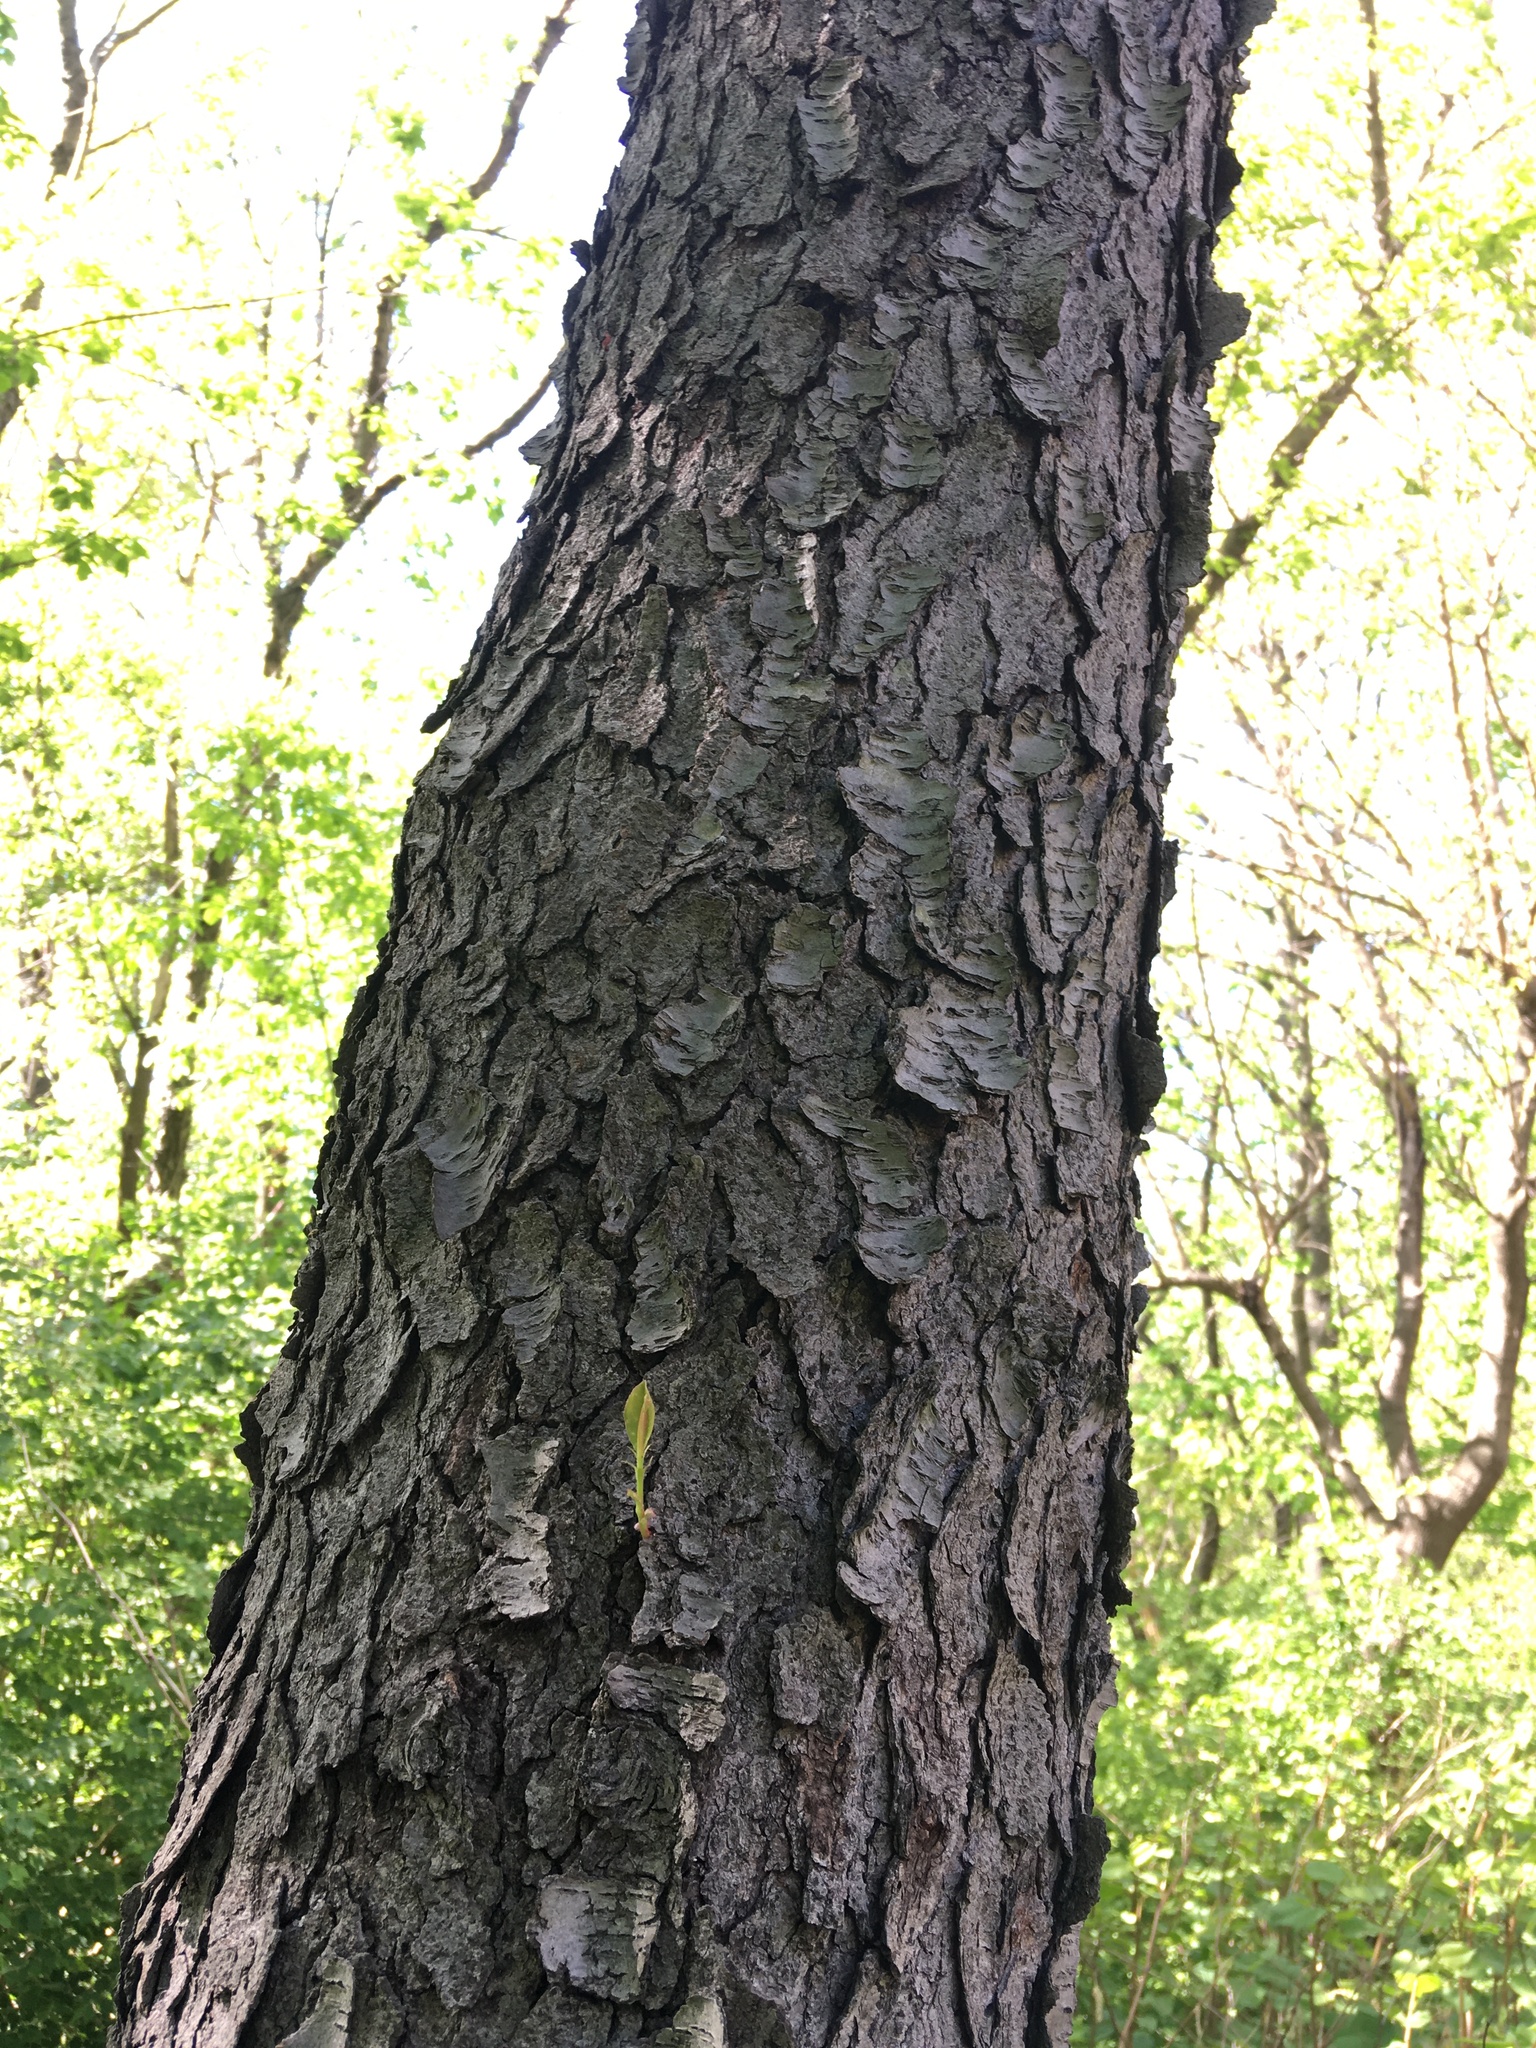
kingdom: Plantae
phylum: Tracheophyta
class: Magnoliopsida
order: Rosales
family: Rosaceae
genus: Prunus
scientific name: Prunus serotina
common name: Black cherry
